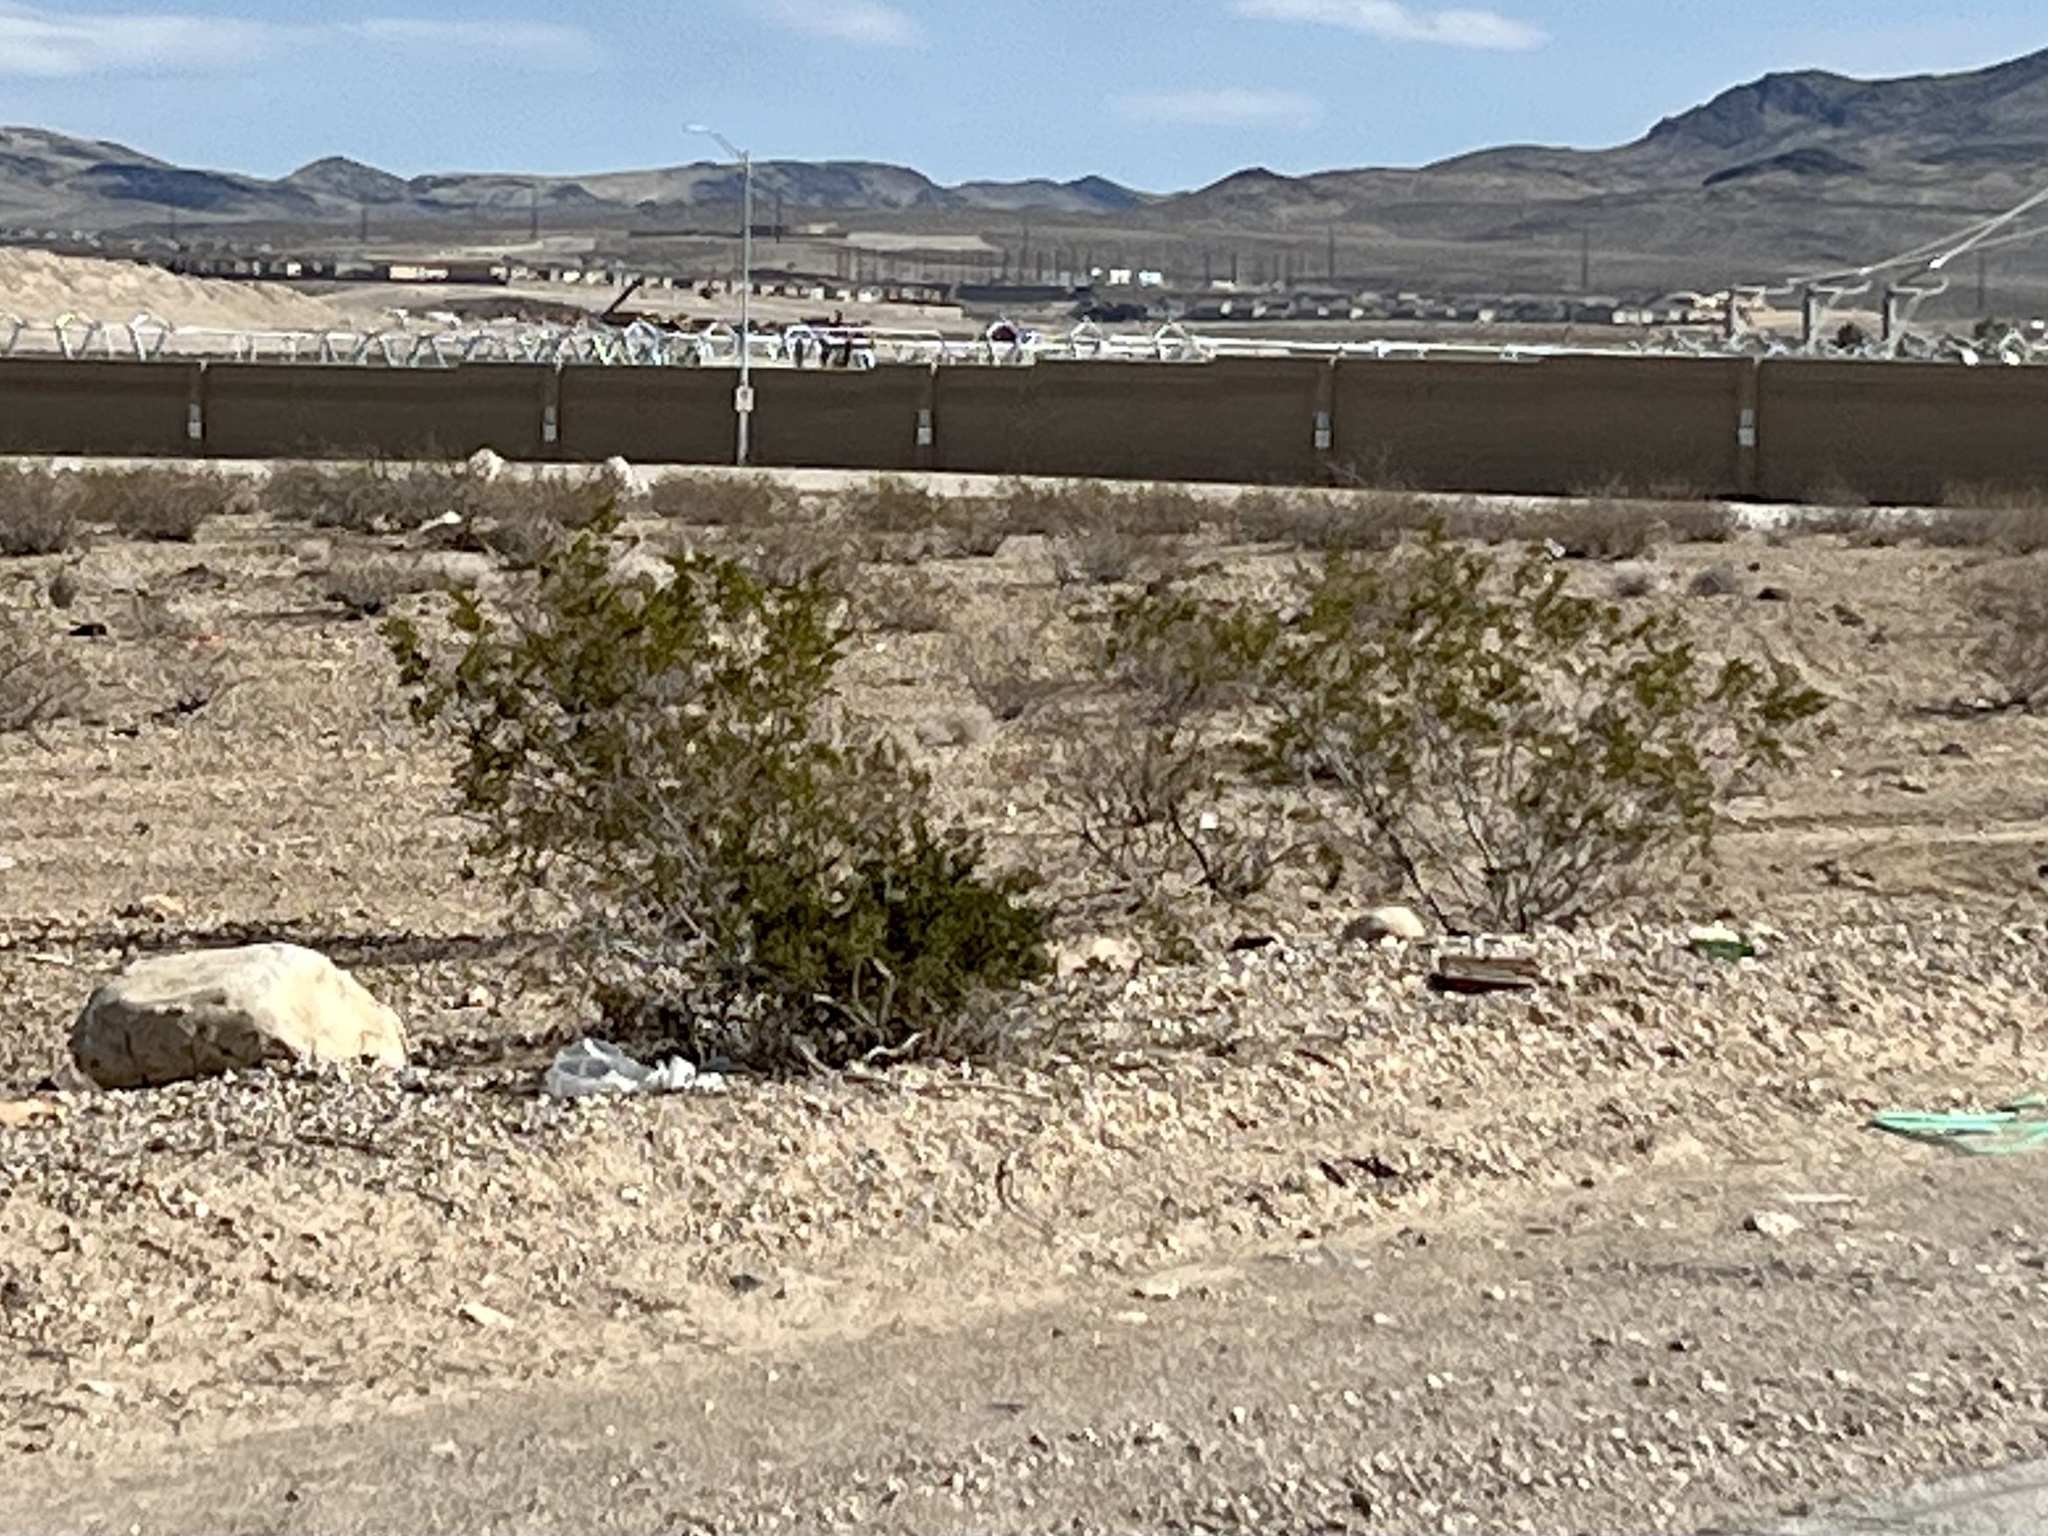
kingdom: Plantae
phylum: Tracheophyta
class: Magnoliopsida
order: Zygophyllales
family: Zygophyllaceae
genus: Larrea
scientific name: Larrea tridentata
